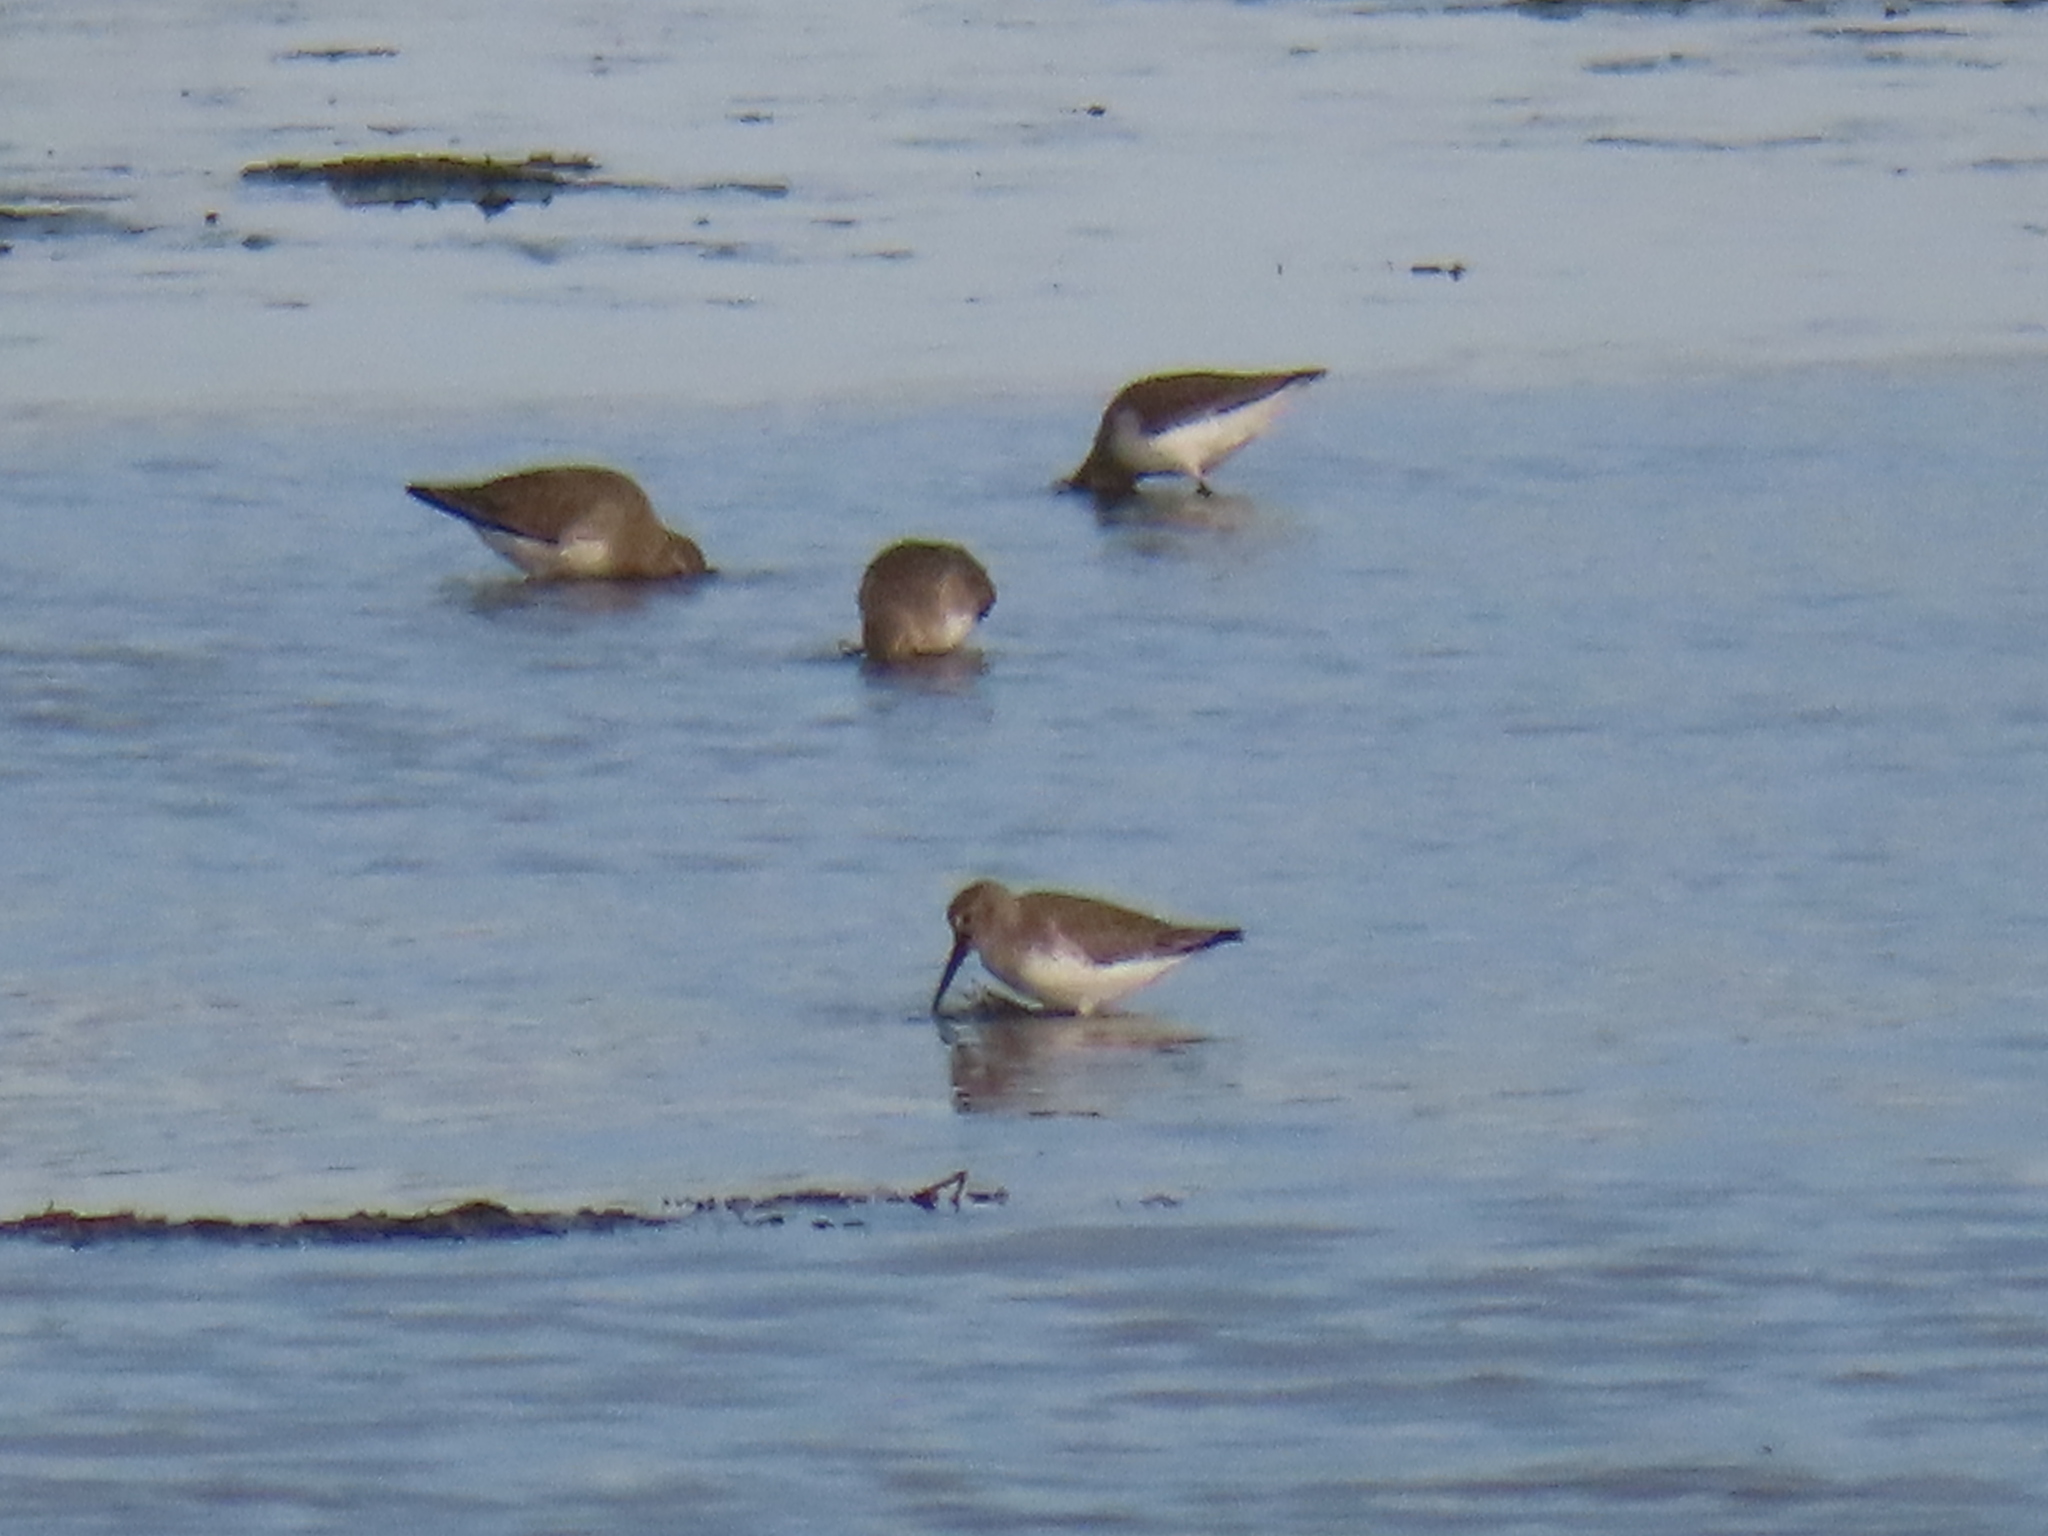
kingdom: Animalia
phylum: Chordata
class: Aves
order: Charadriiformes
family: Scolopacidae
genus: Calidris
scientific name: Calidris alpina
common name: Dunlin
